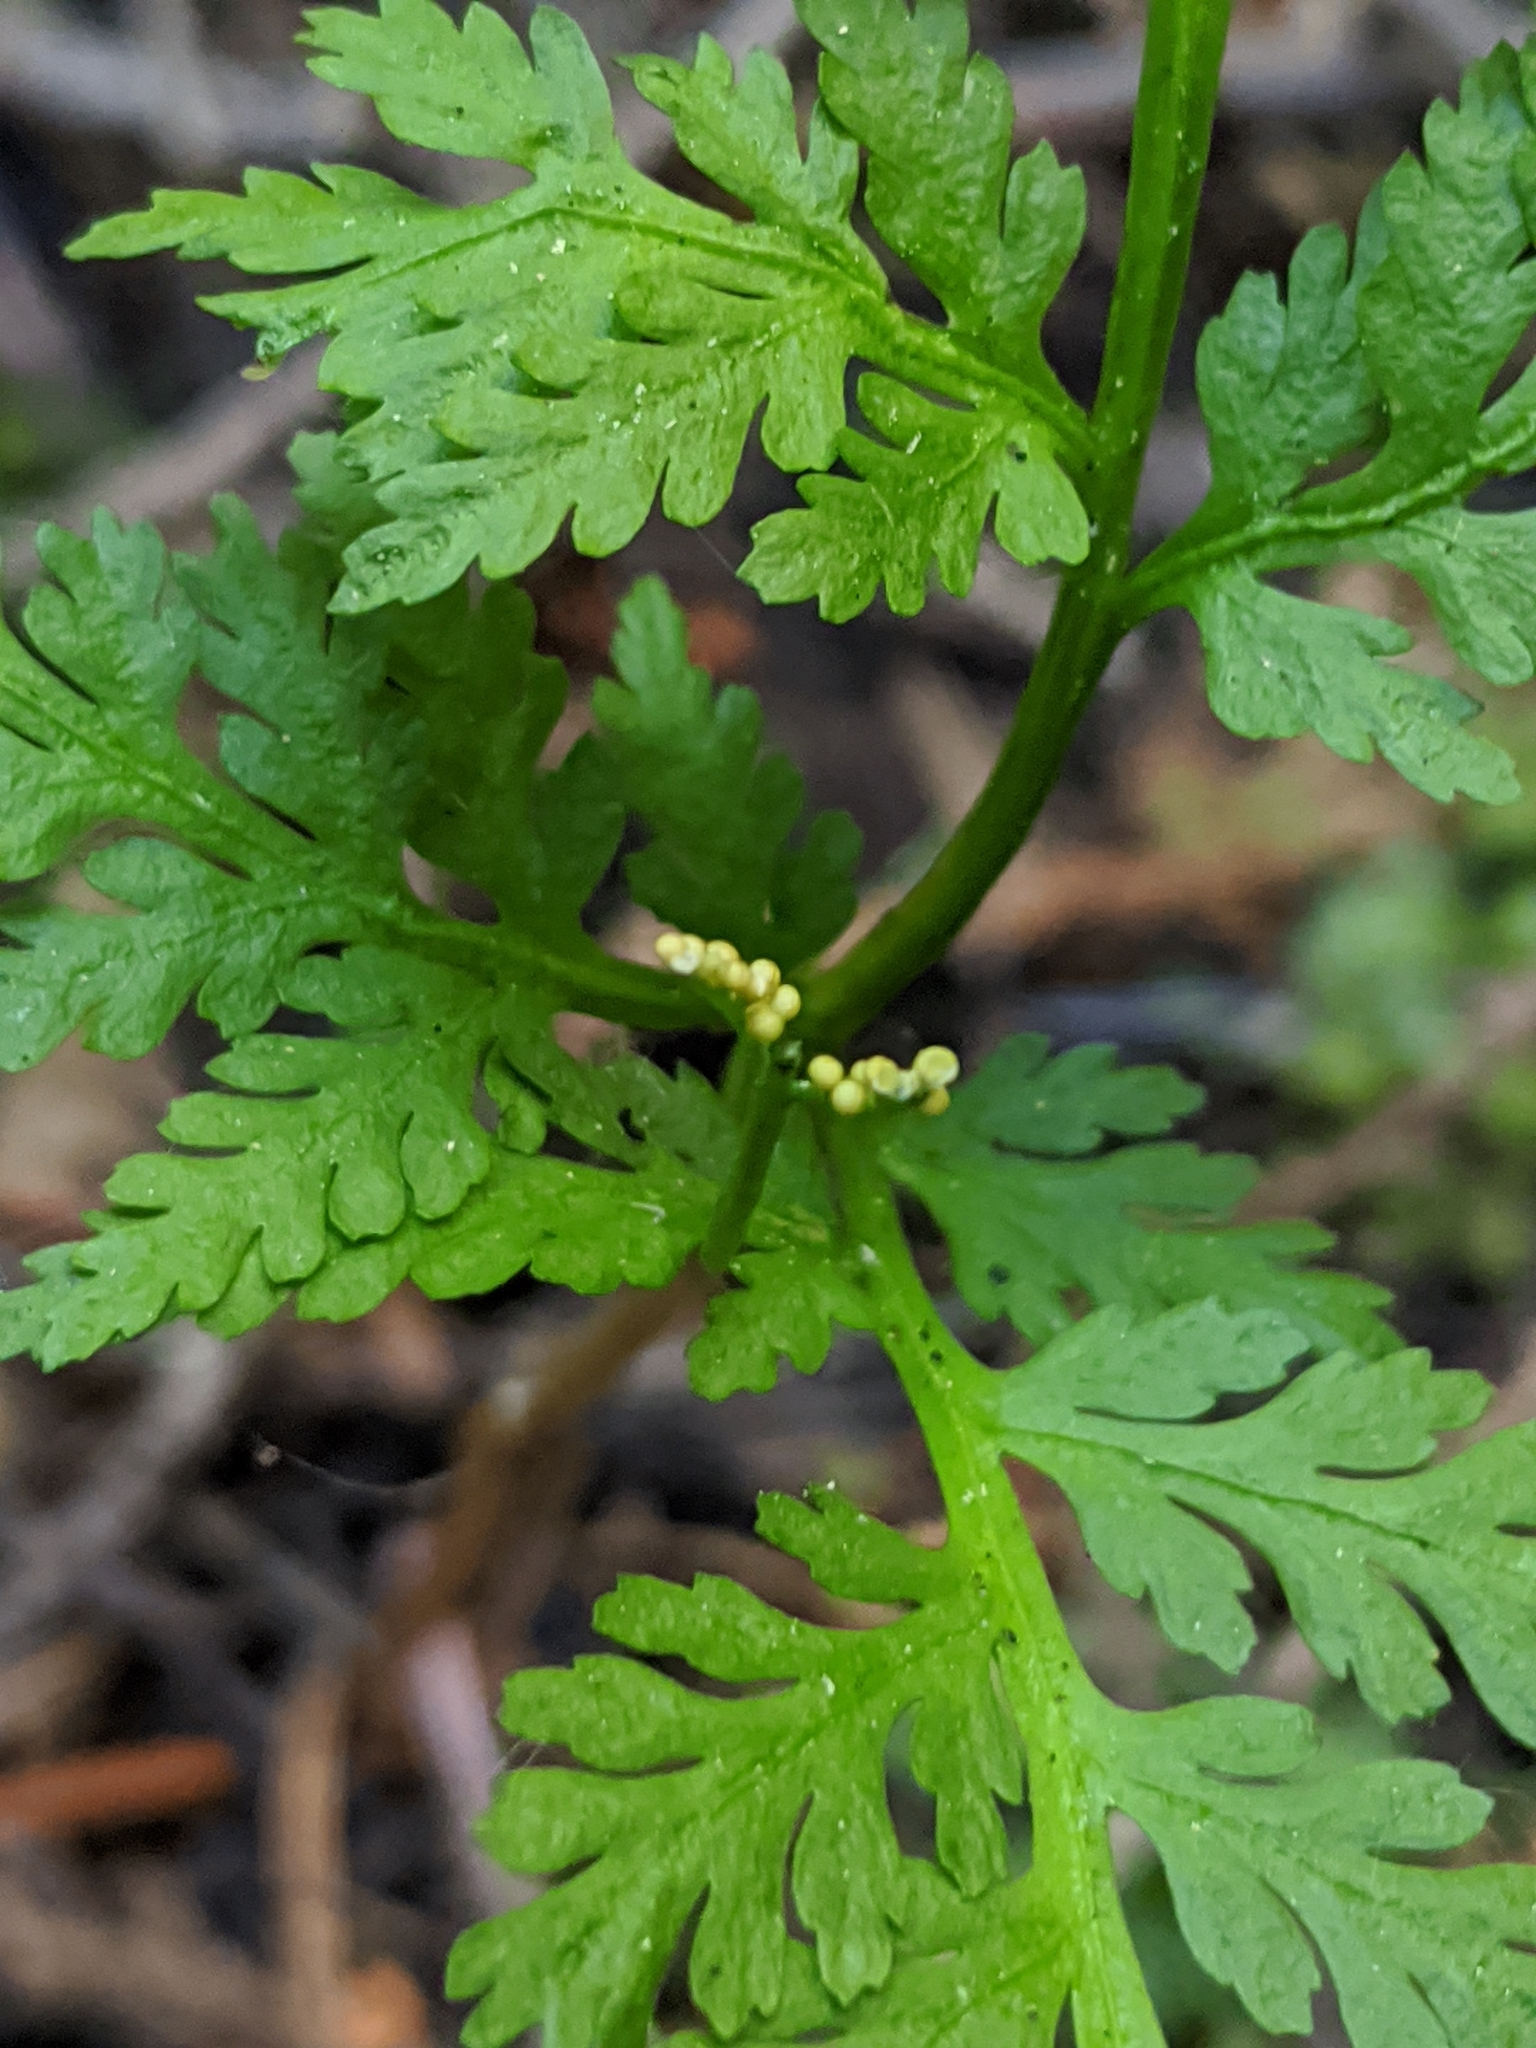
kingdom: Plantae
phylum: Tracheophyta
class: Polypodiopsida
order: Ophioglossales
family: Ophioglossaceae
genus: Botrypus
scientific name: Botrypus virginianus
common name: Common grapefern
